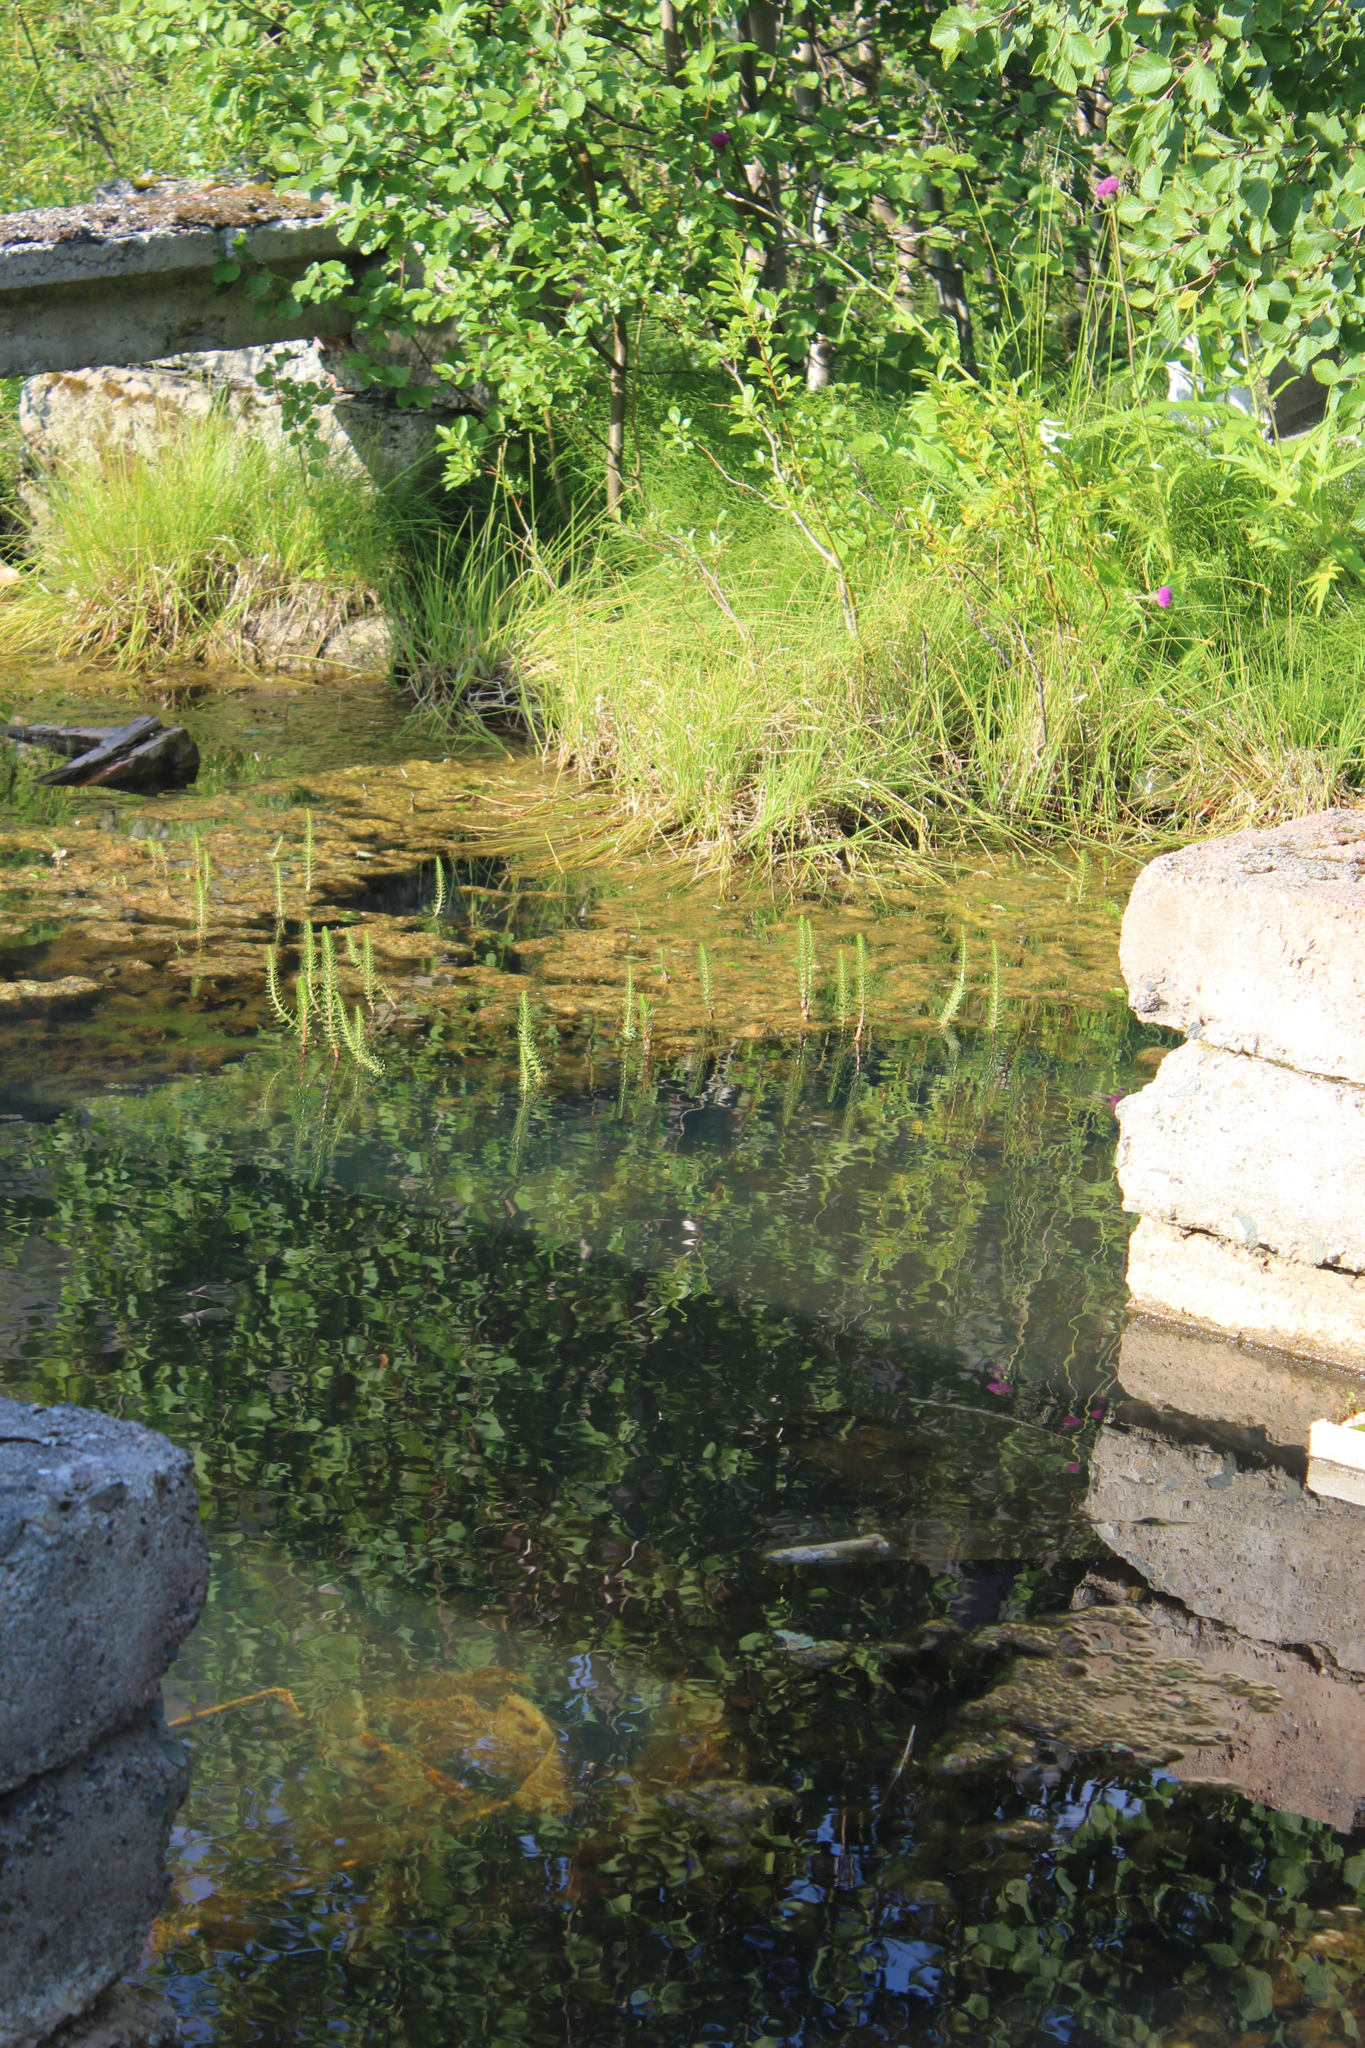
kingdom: Plantae
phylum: Tracheophyta
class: Magnoliopsida
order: Lamiales
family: Plantaginaceae
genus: Hippuris
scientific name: Hippuris vulgaris
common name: Mare's-tail
